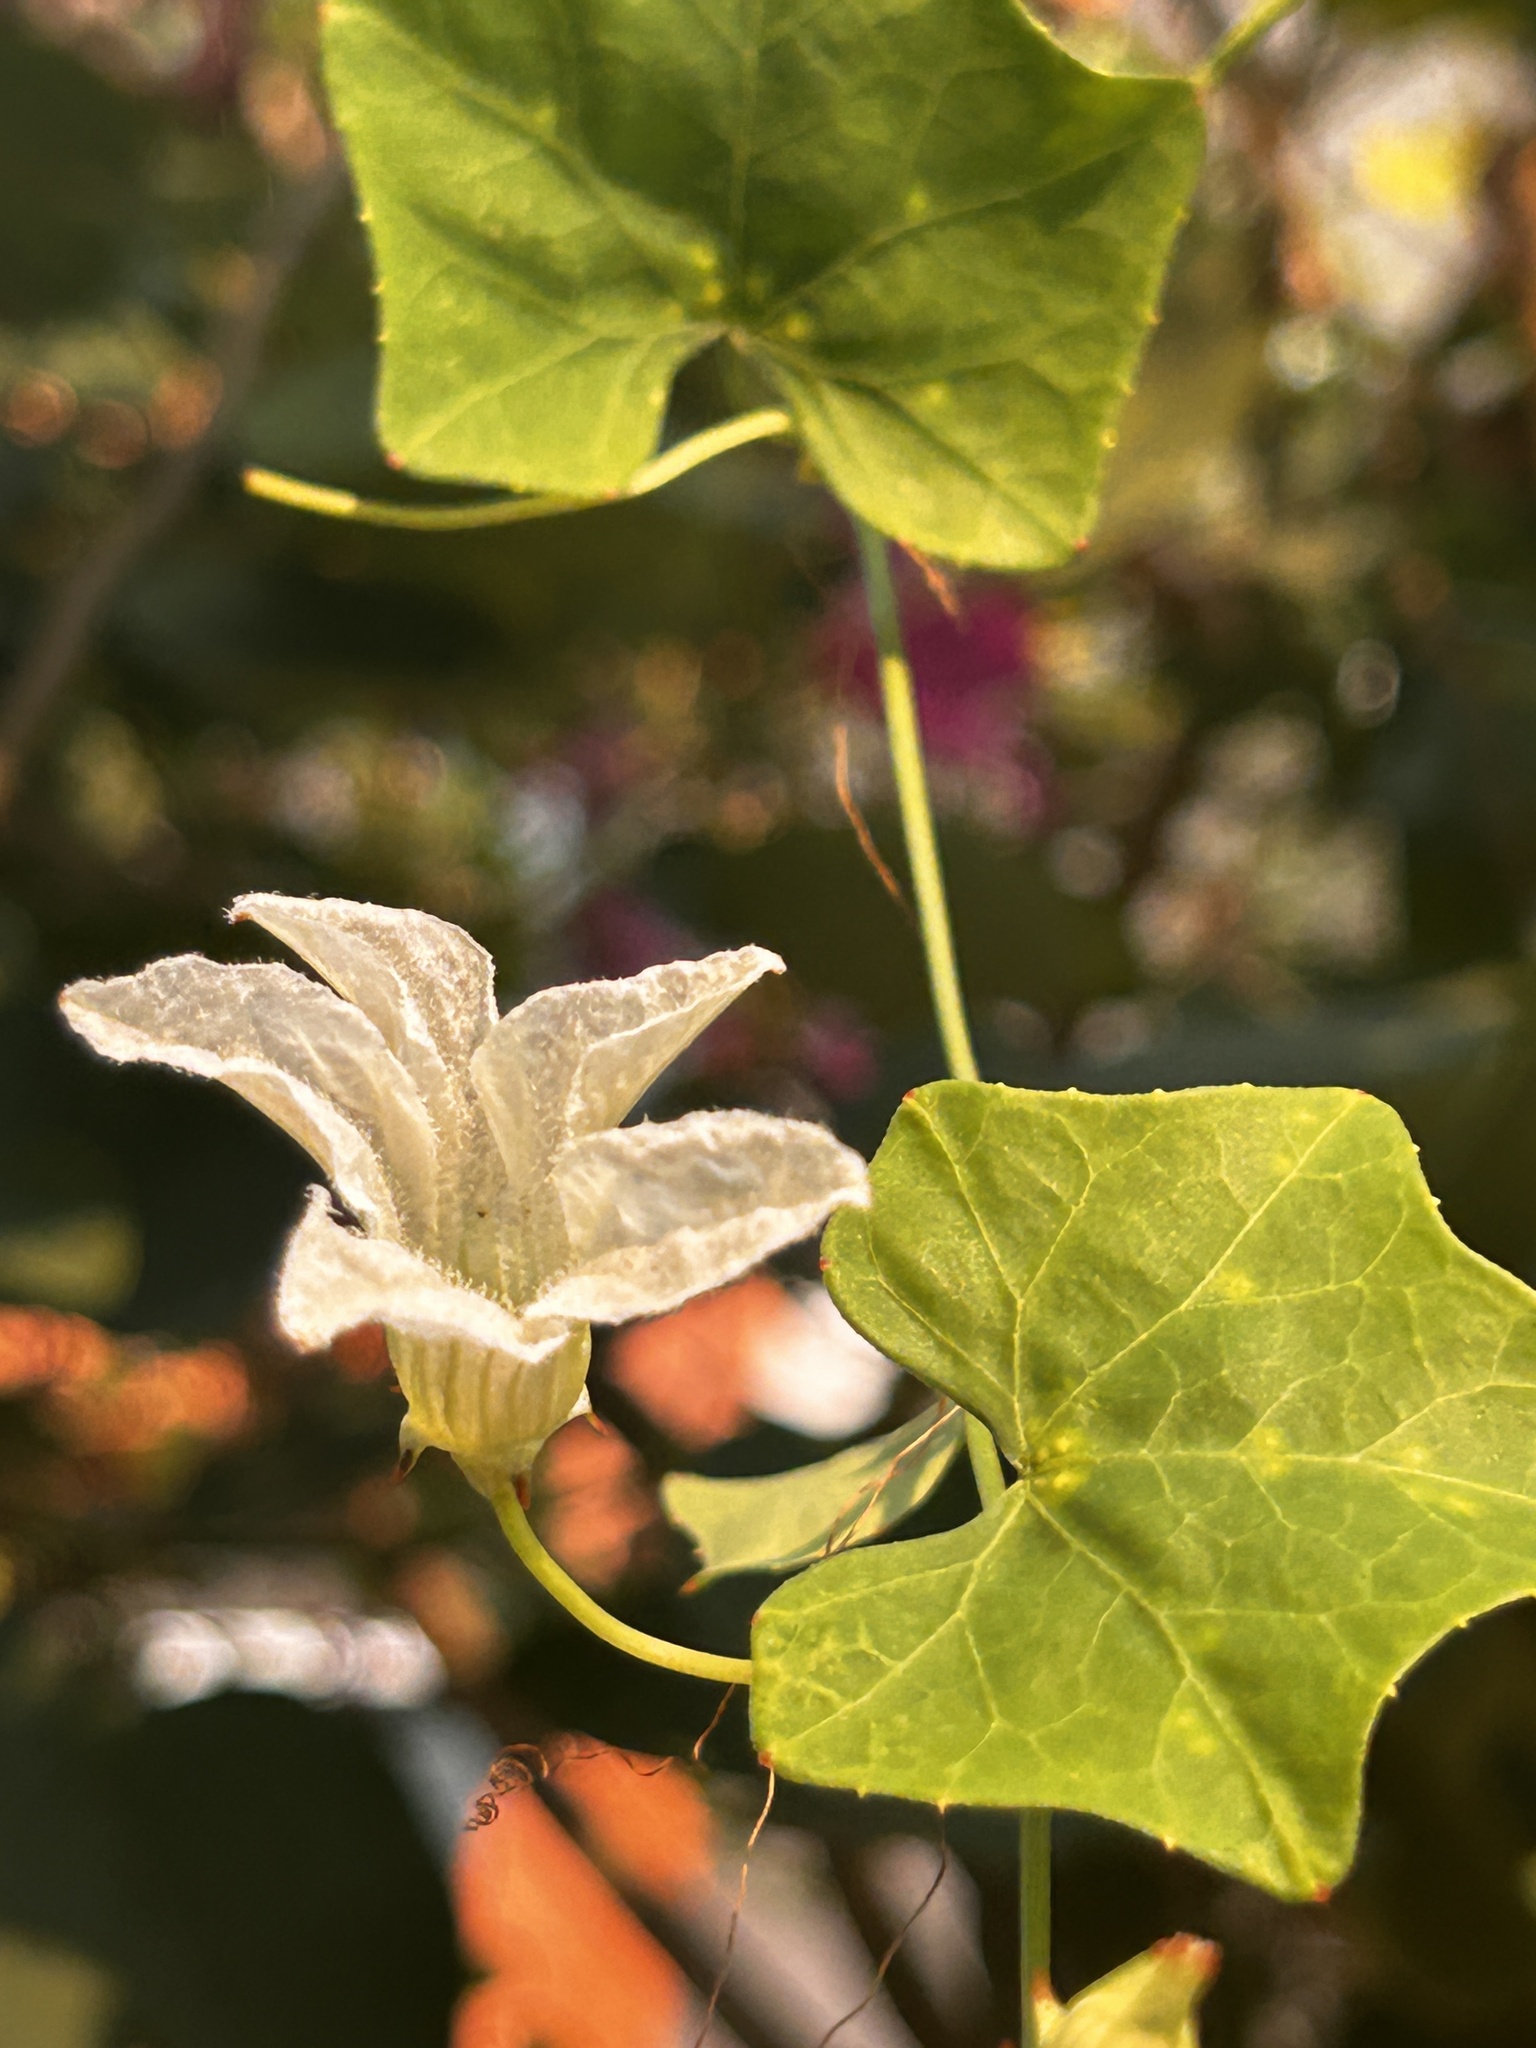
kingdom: Plantae
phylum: Tracheophyta
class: Magnoliopsida
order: Cucurbitales
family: Cucurbitaceae
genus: Coccinia
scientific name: Coccinia grandis
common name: Ivy gourd
